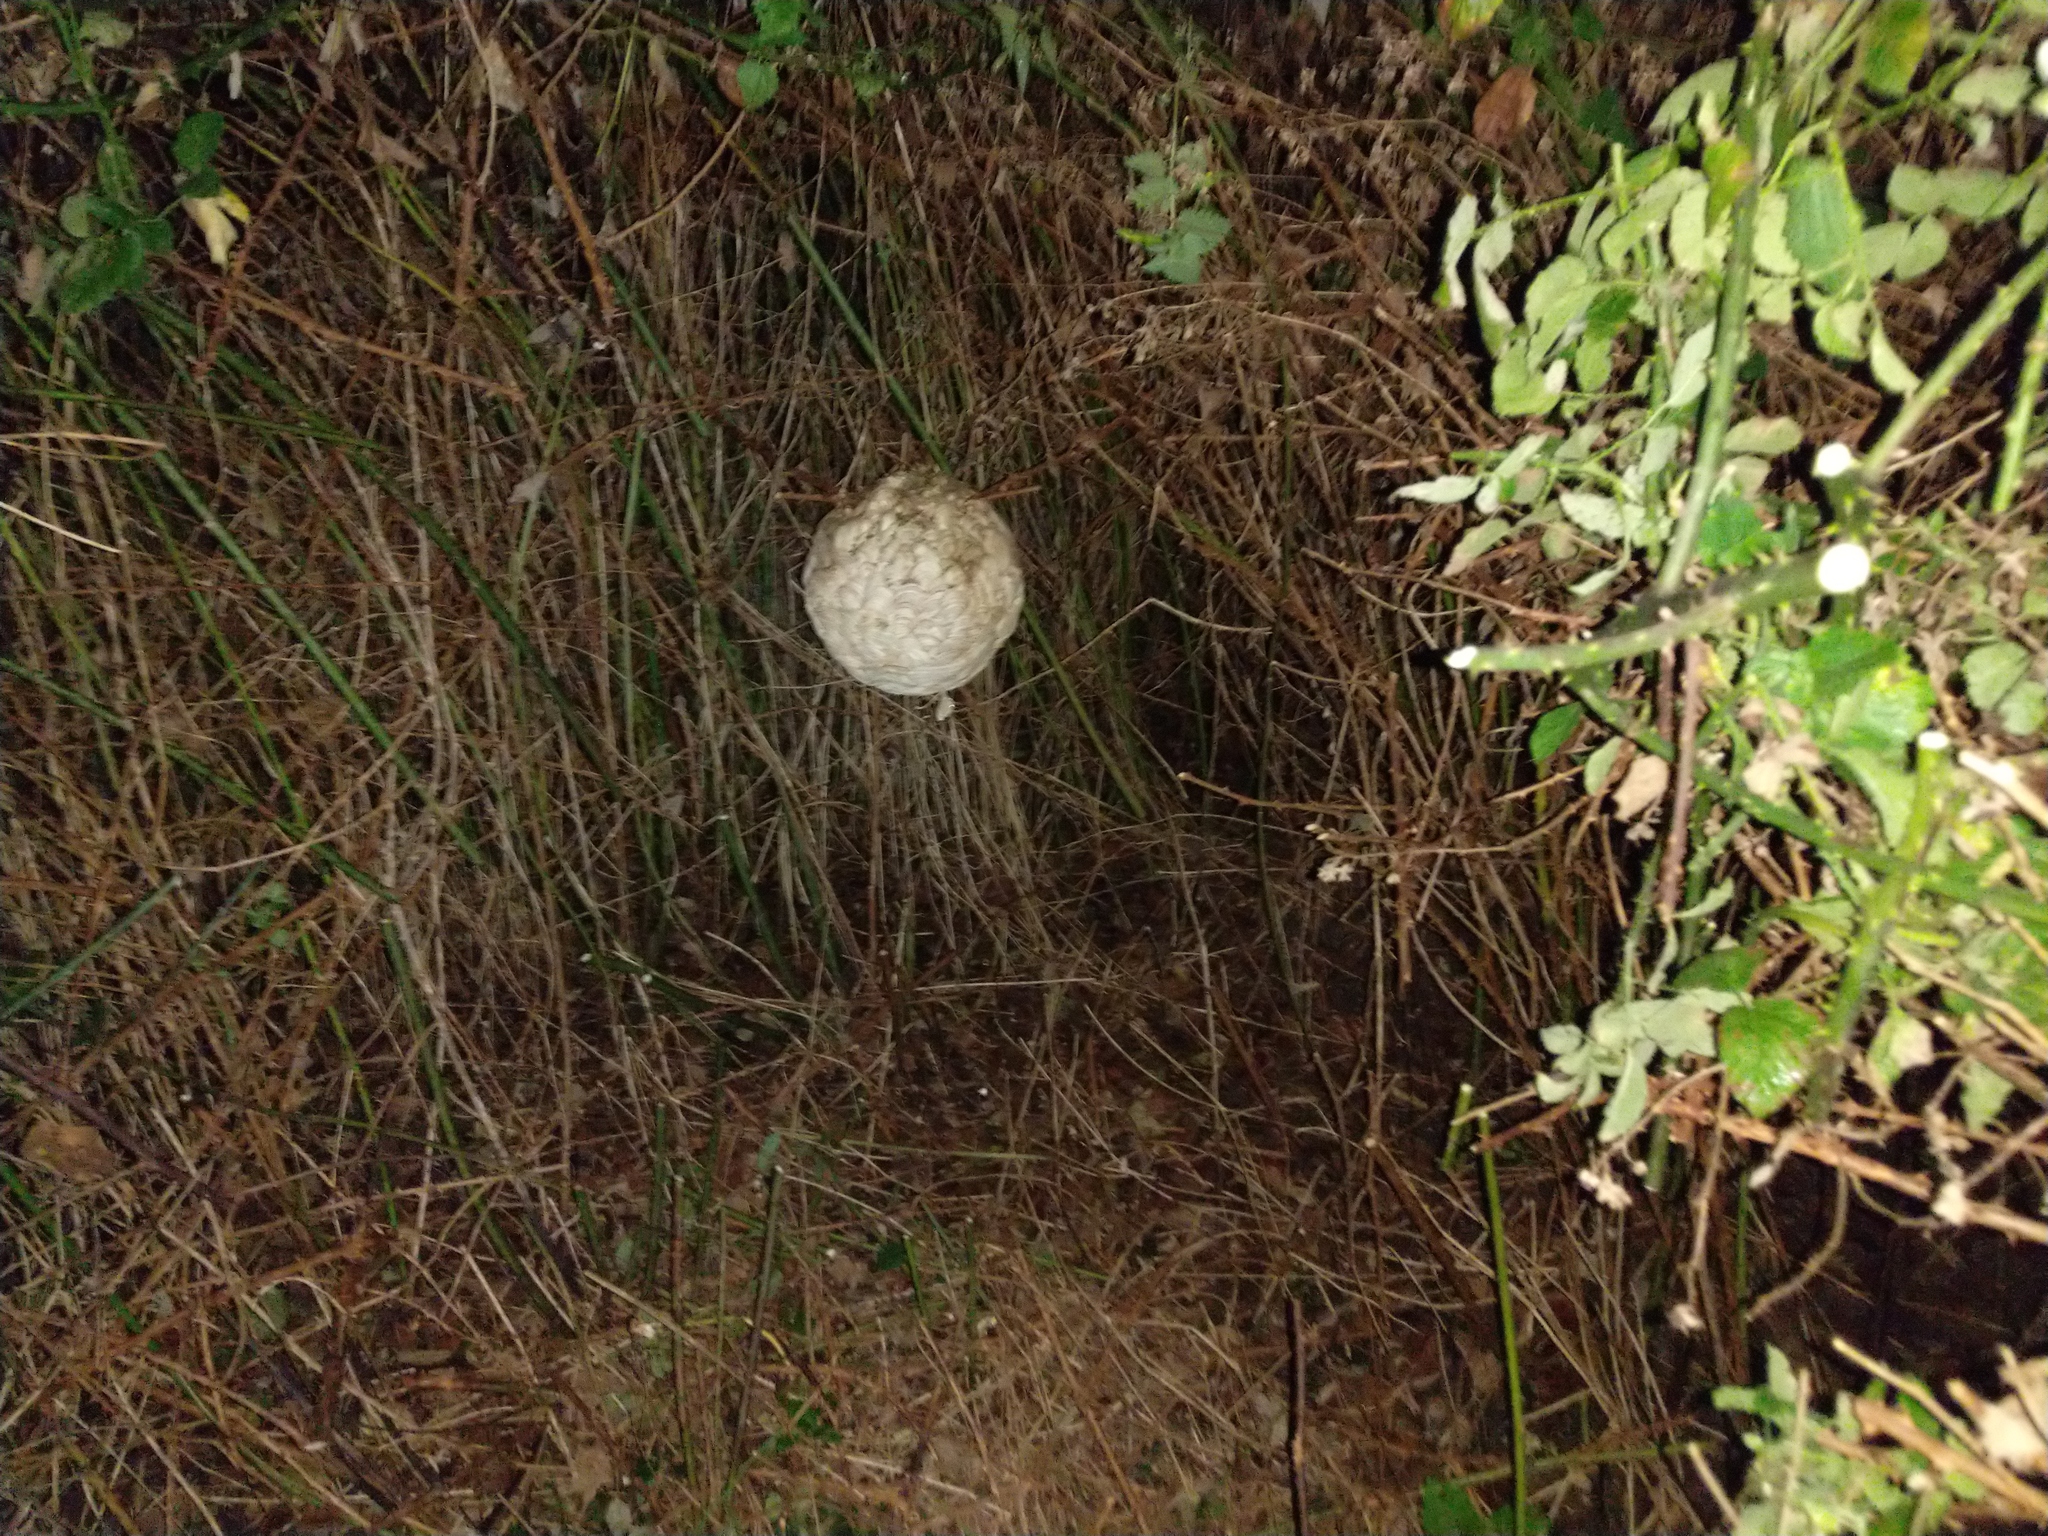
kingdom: Animalia
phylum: Arthropoda
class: Insecta
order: Hymenoptera
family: Vespidae
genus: Vespa
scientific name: Vespa velutina
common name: Asian hornet
